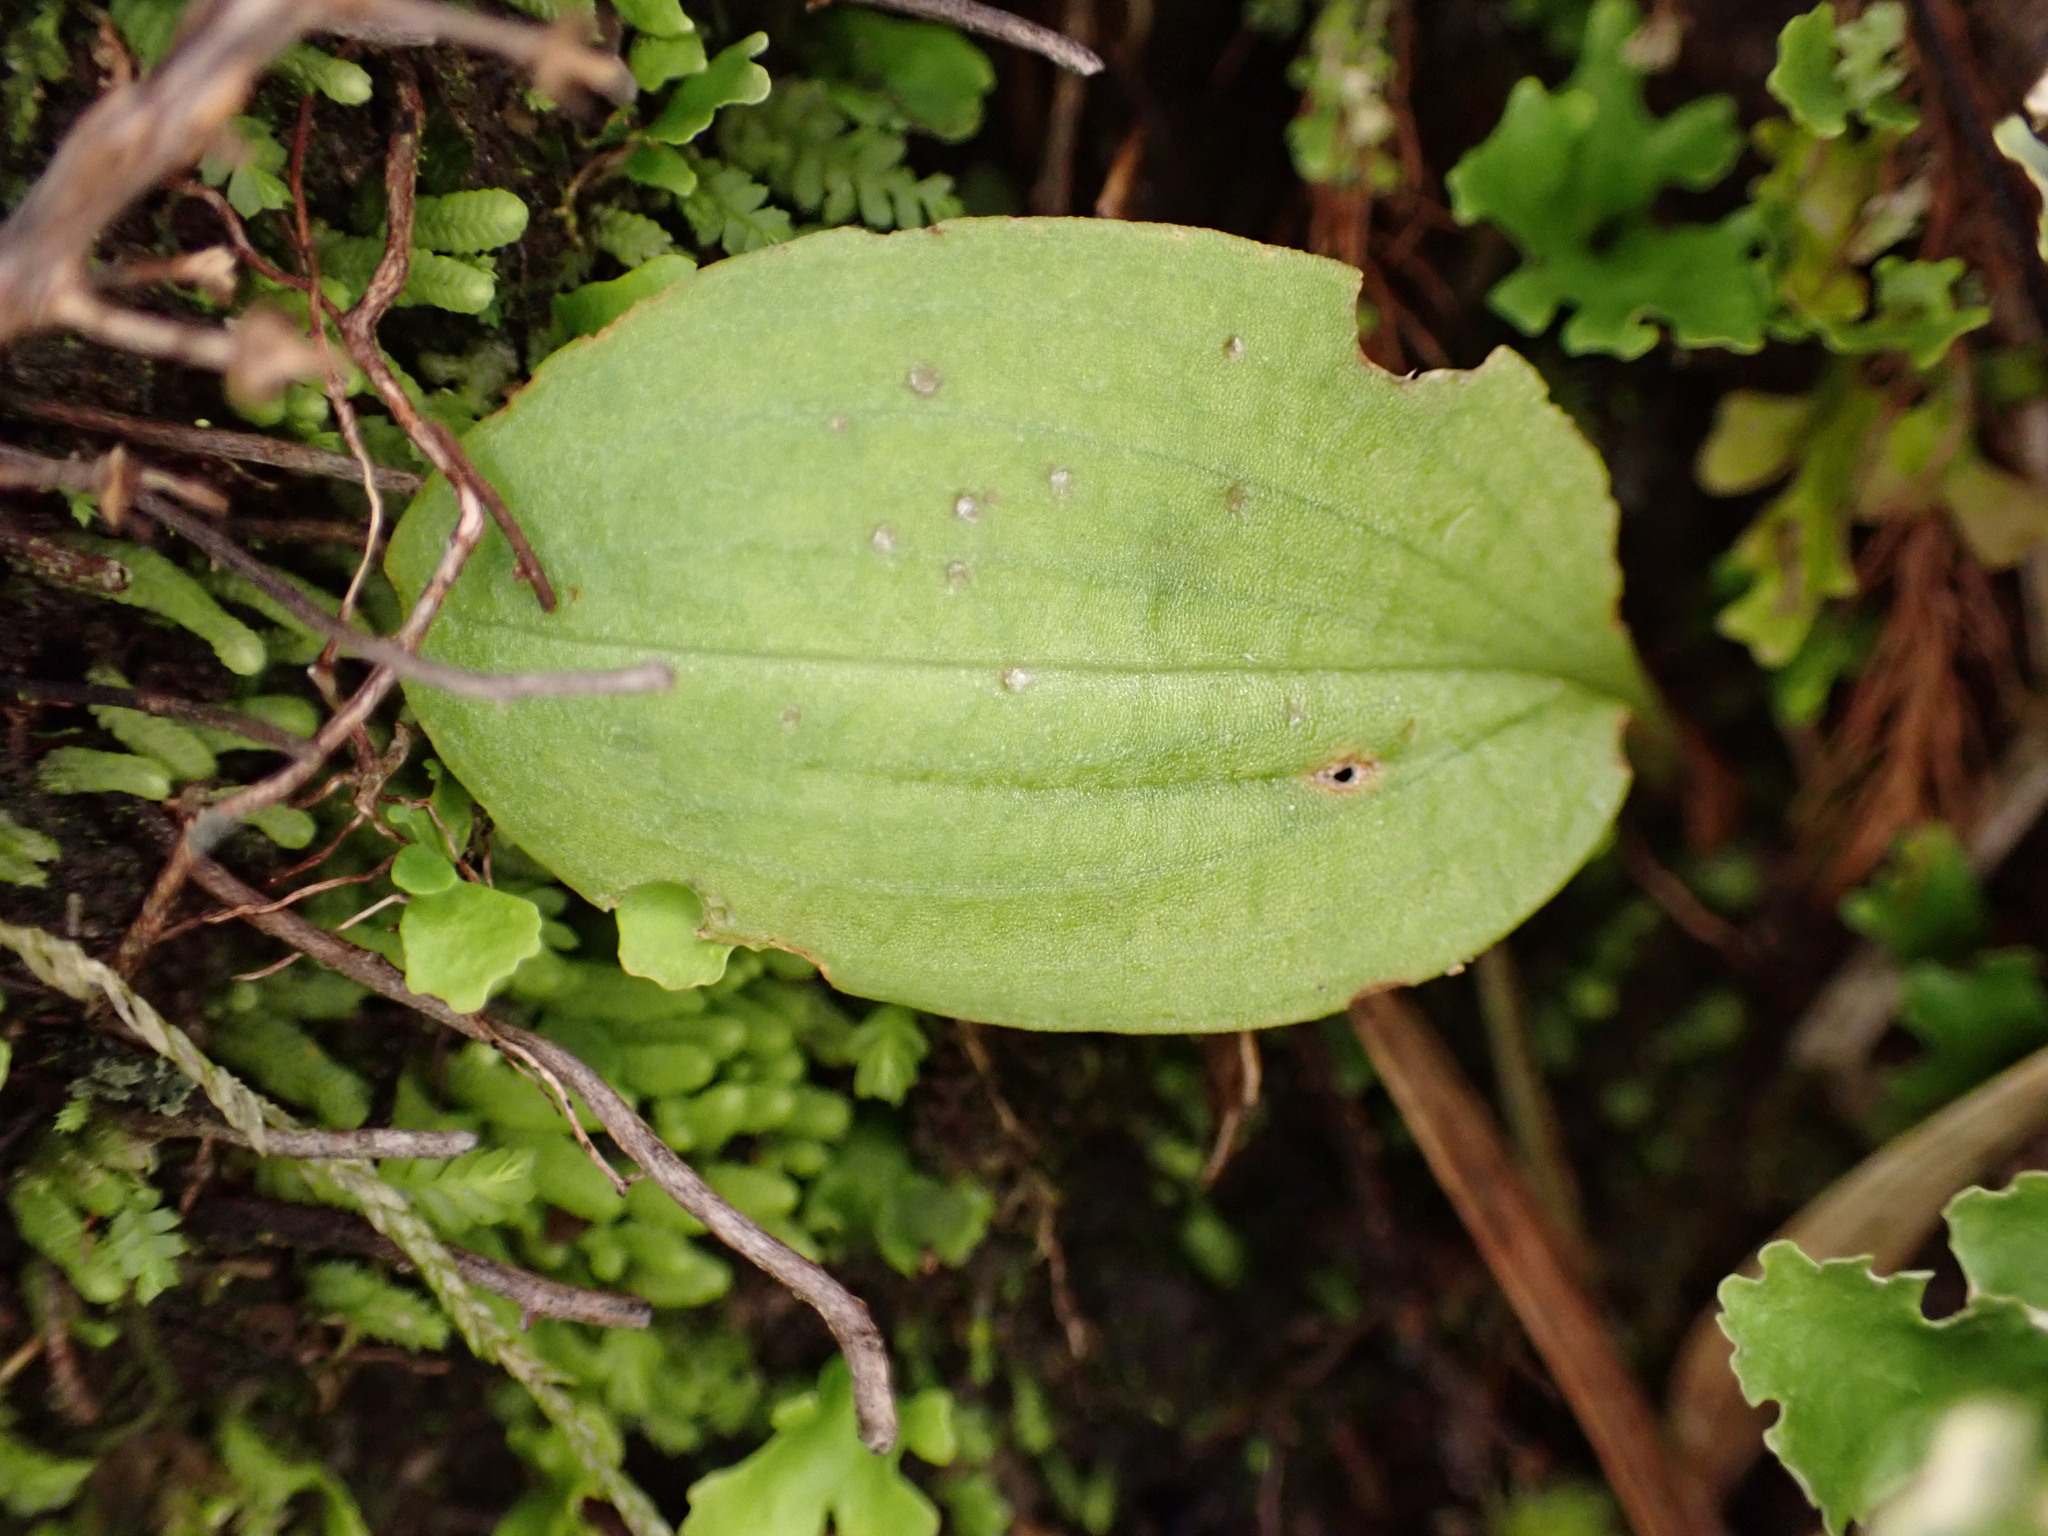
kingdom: Plantae
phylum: Tracheophyta
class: Liliopsida
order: Asparagales
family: Orchidaceae
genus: Chiloglottis
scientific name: Chiloglottis cornuta
